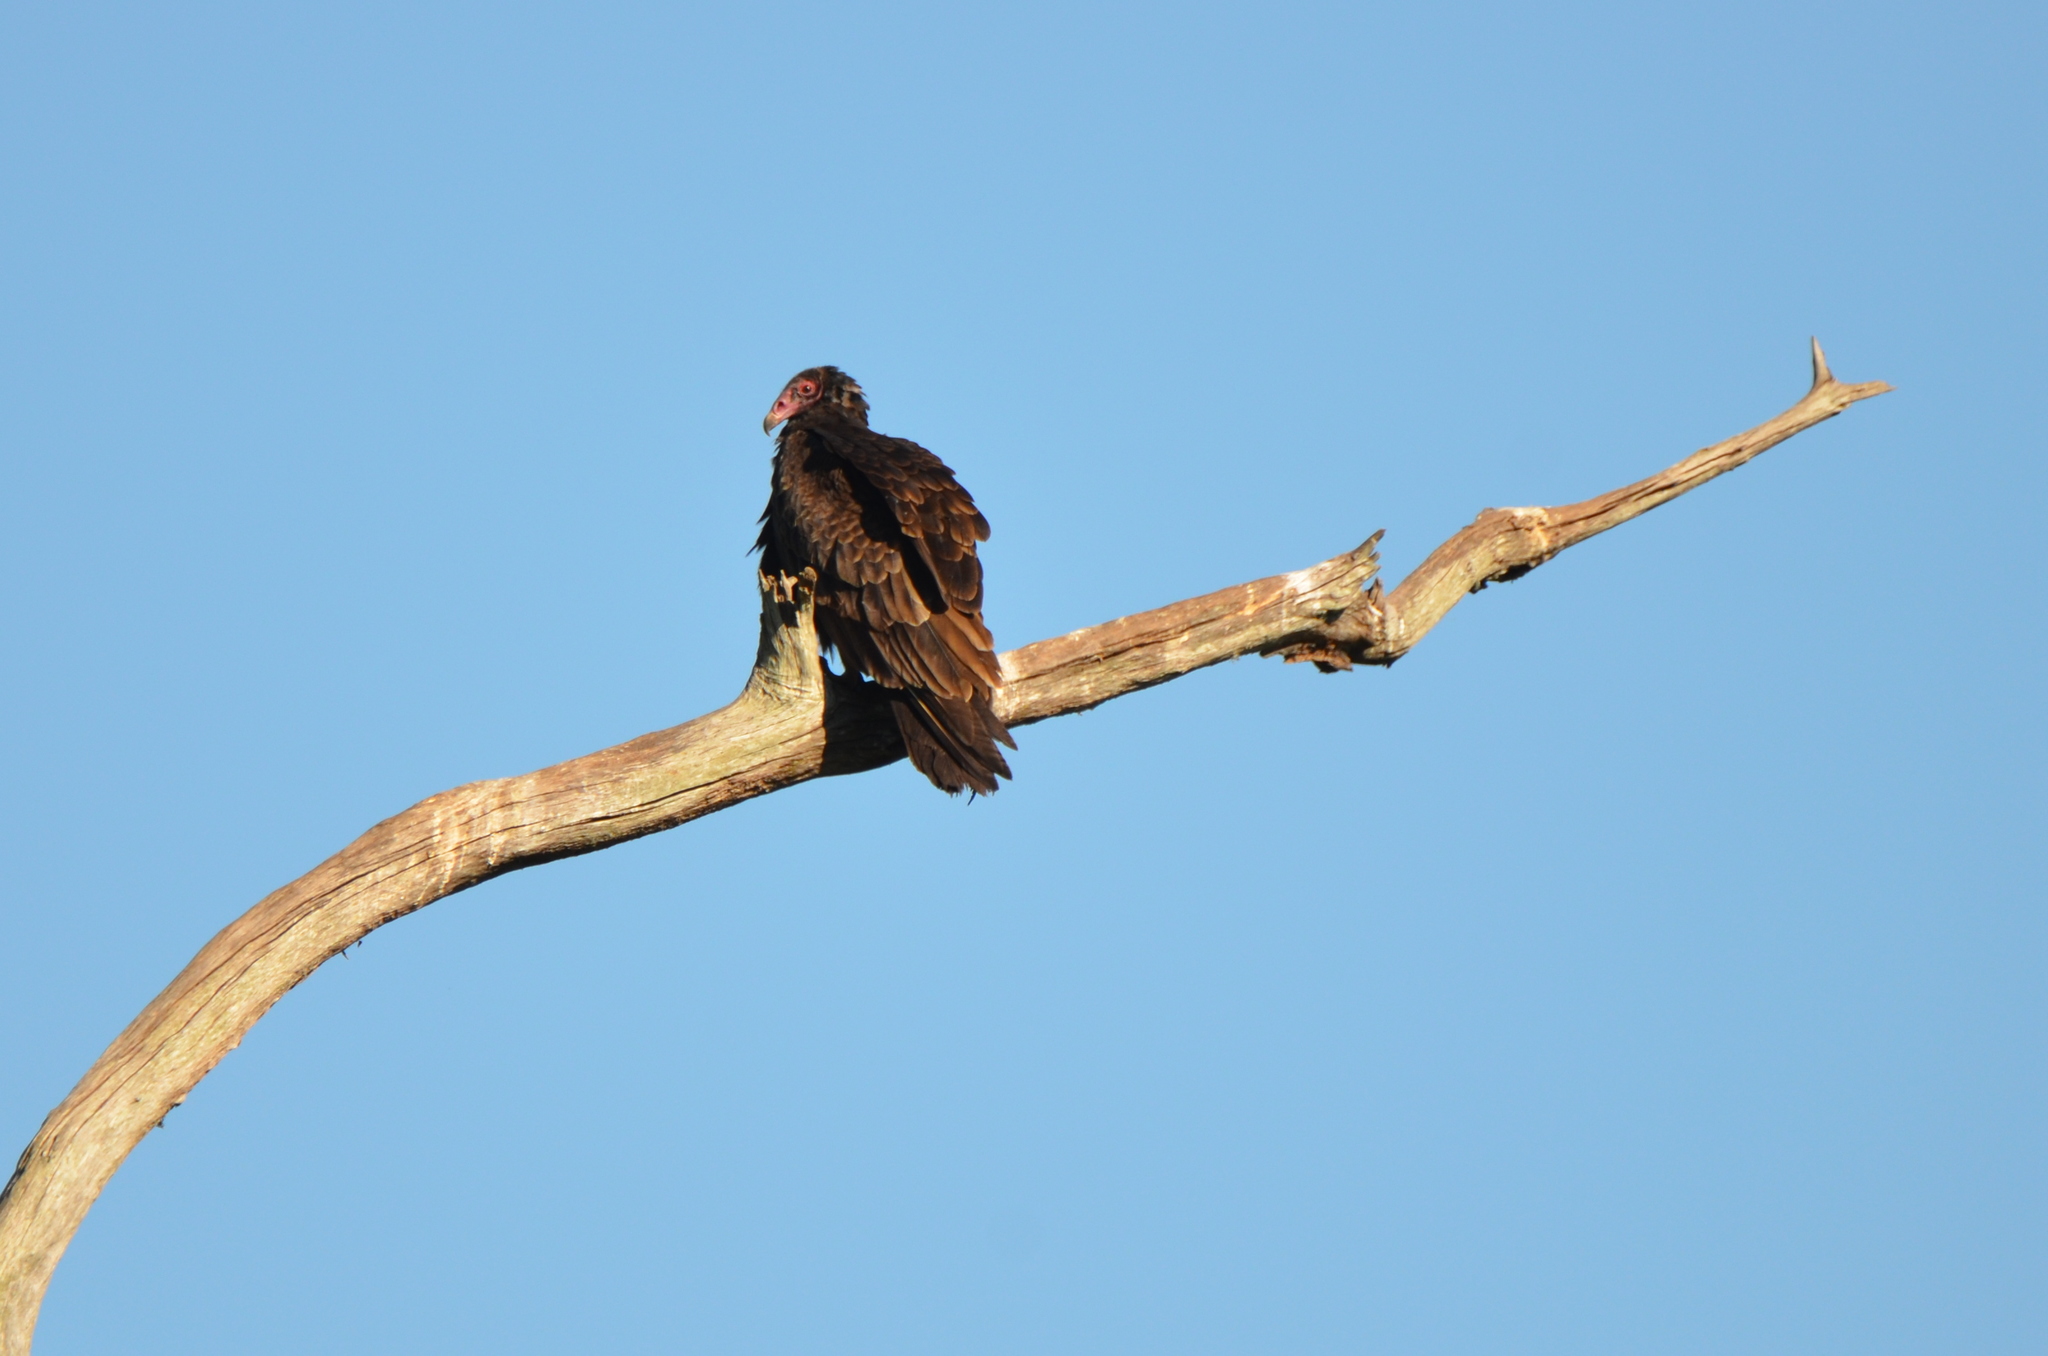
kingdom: Animalia
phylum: Chordata
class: Aves
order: Accipitriformes
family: Cathartidae
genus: Cathartes
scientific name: Cathartes aura
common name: Turkey vulture
